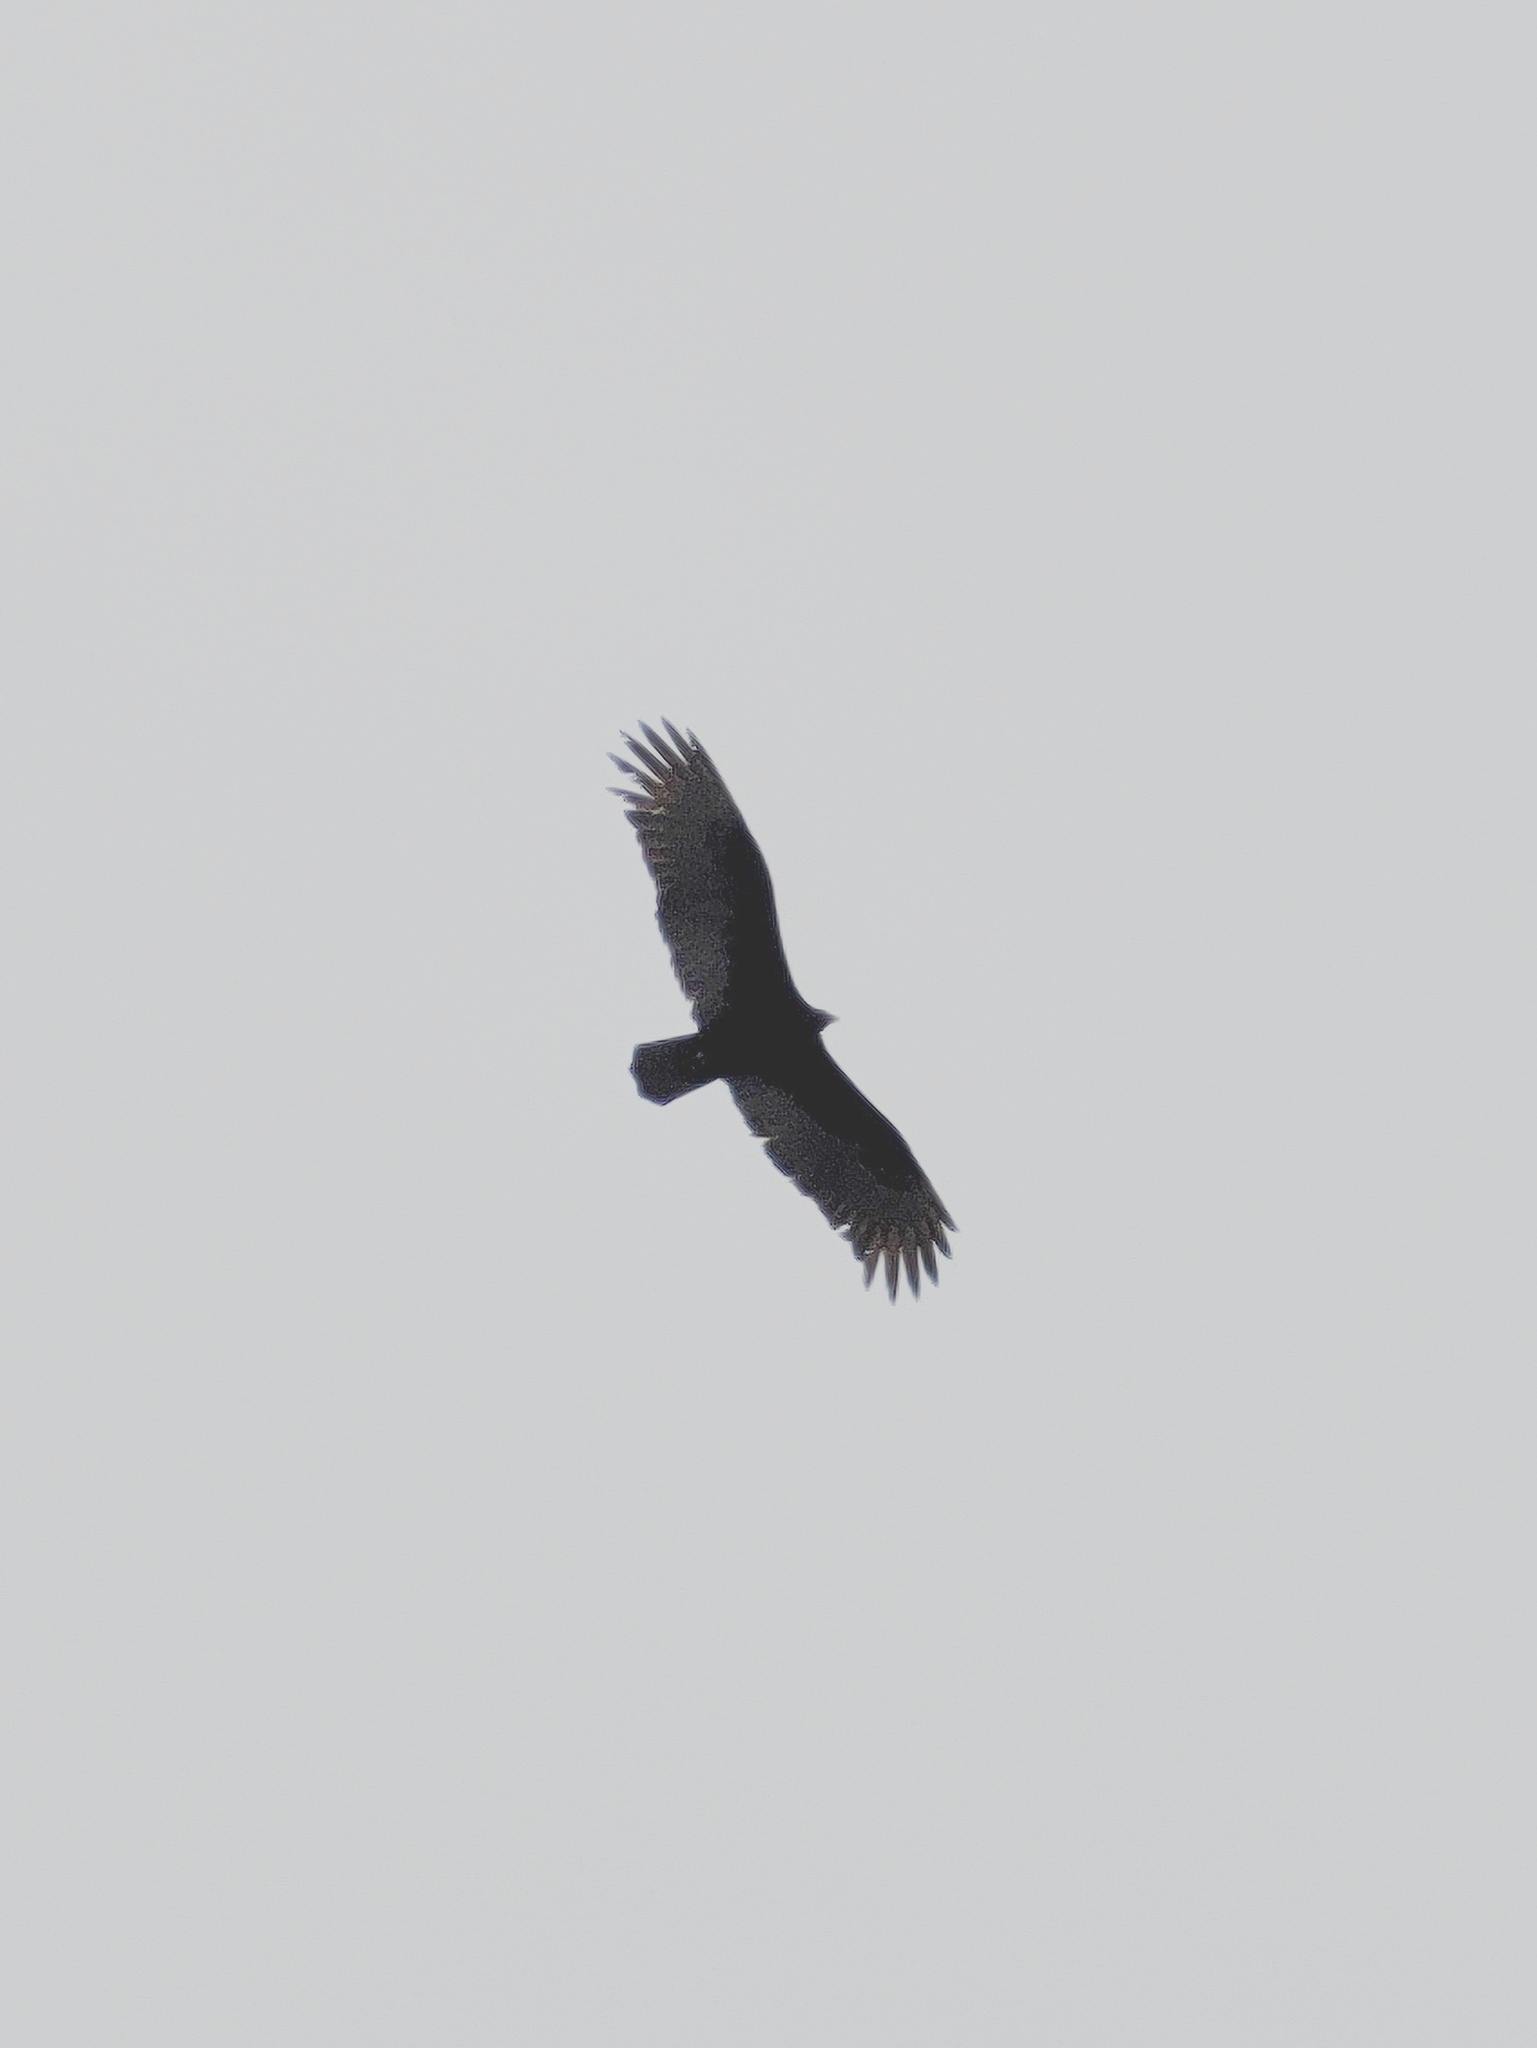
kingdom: Animalia
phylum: Chordata
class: Aves
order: Accipitriformes
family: Cathartidae
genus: Cathartes
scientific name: Cathartes aura
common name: Turkey vulture
